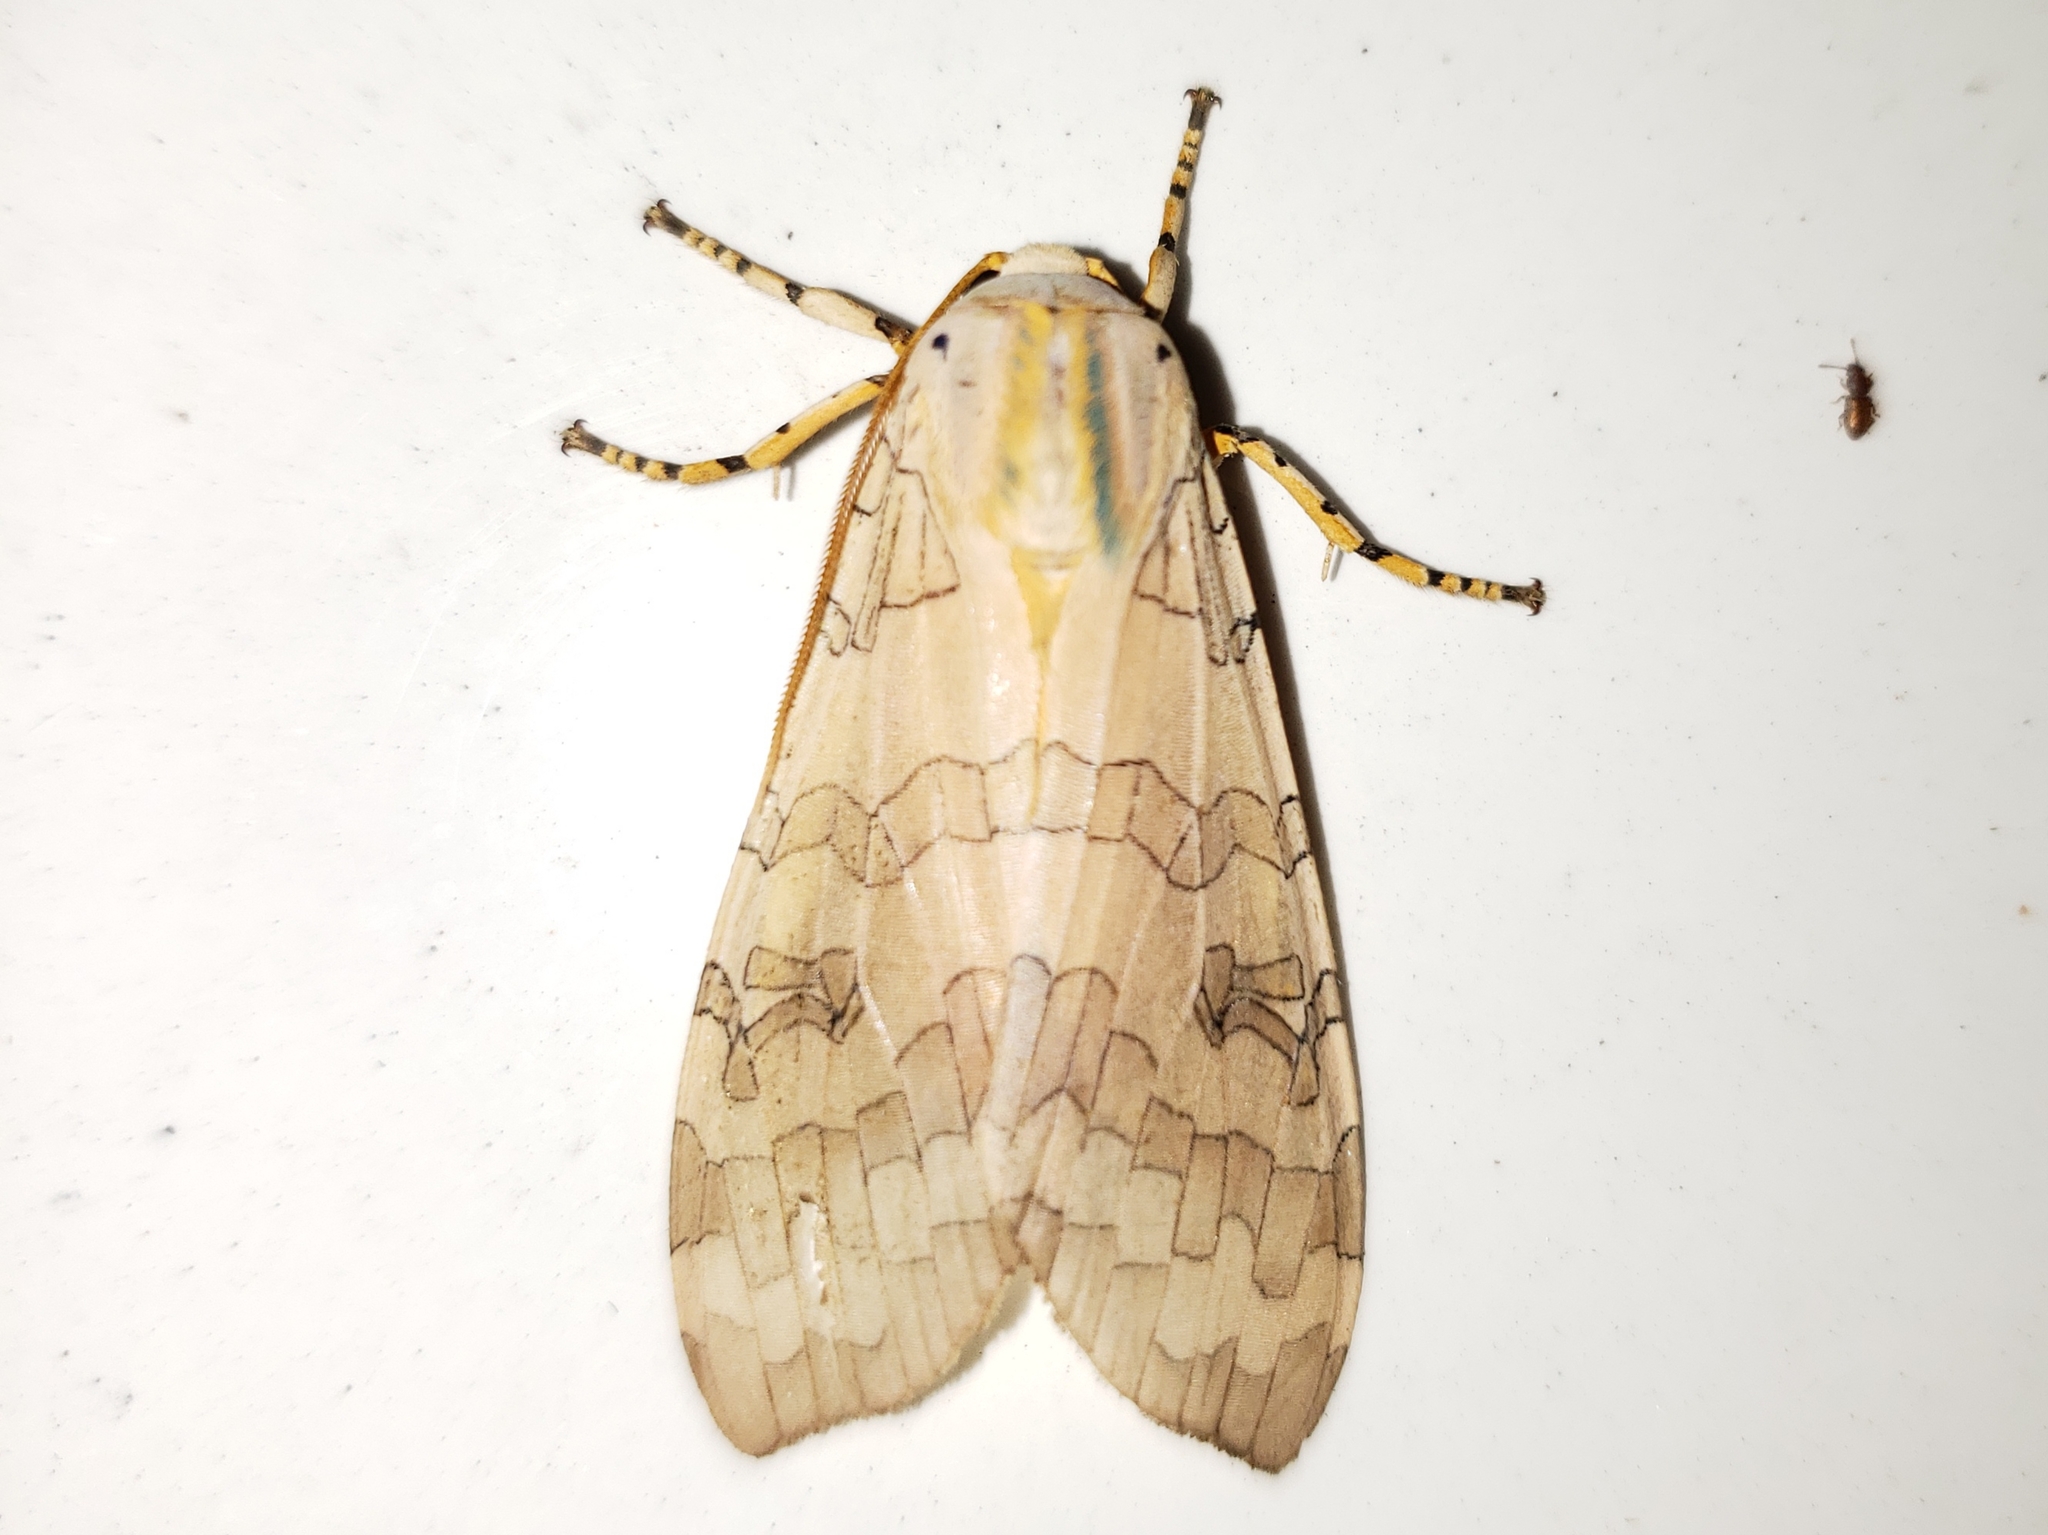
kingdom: Animalia
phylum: Arthropoda
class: Insecta
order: Lepidoptera
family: Erebidae
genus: Halysidota
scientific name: Halysidota
